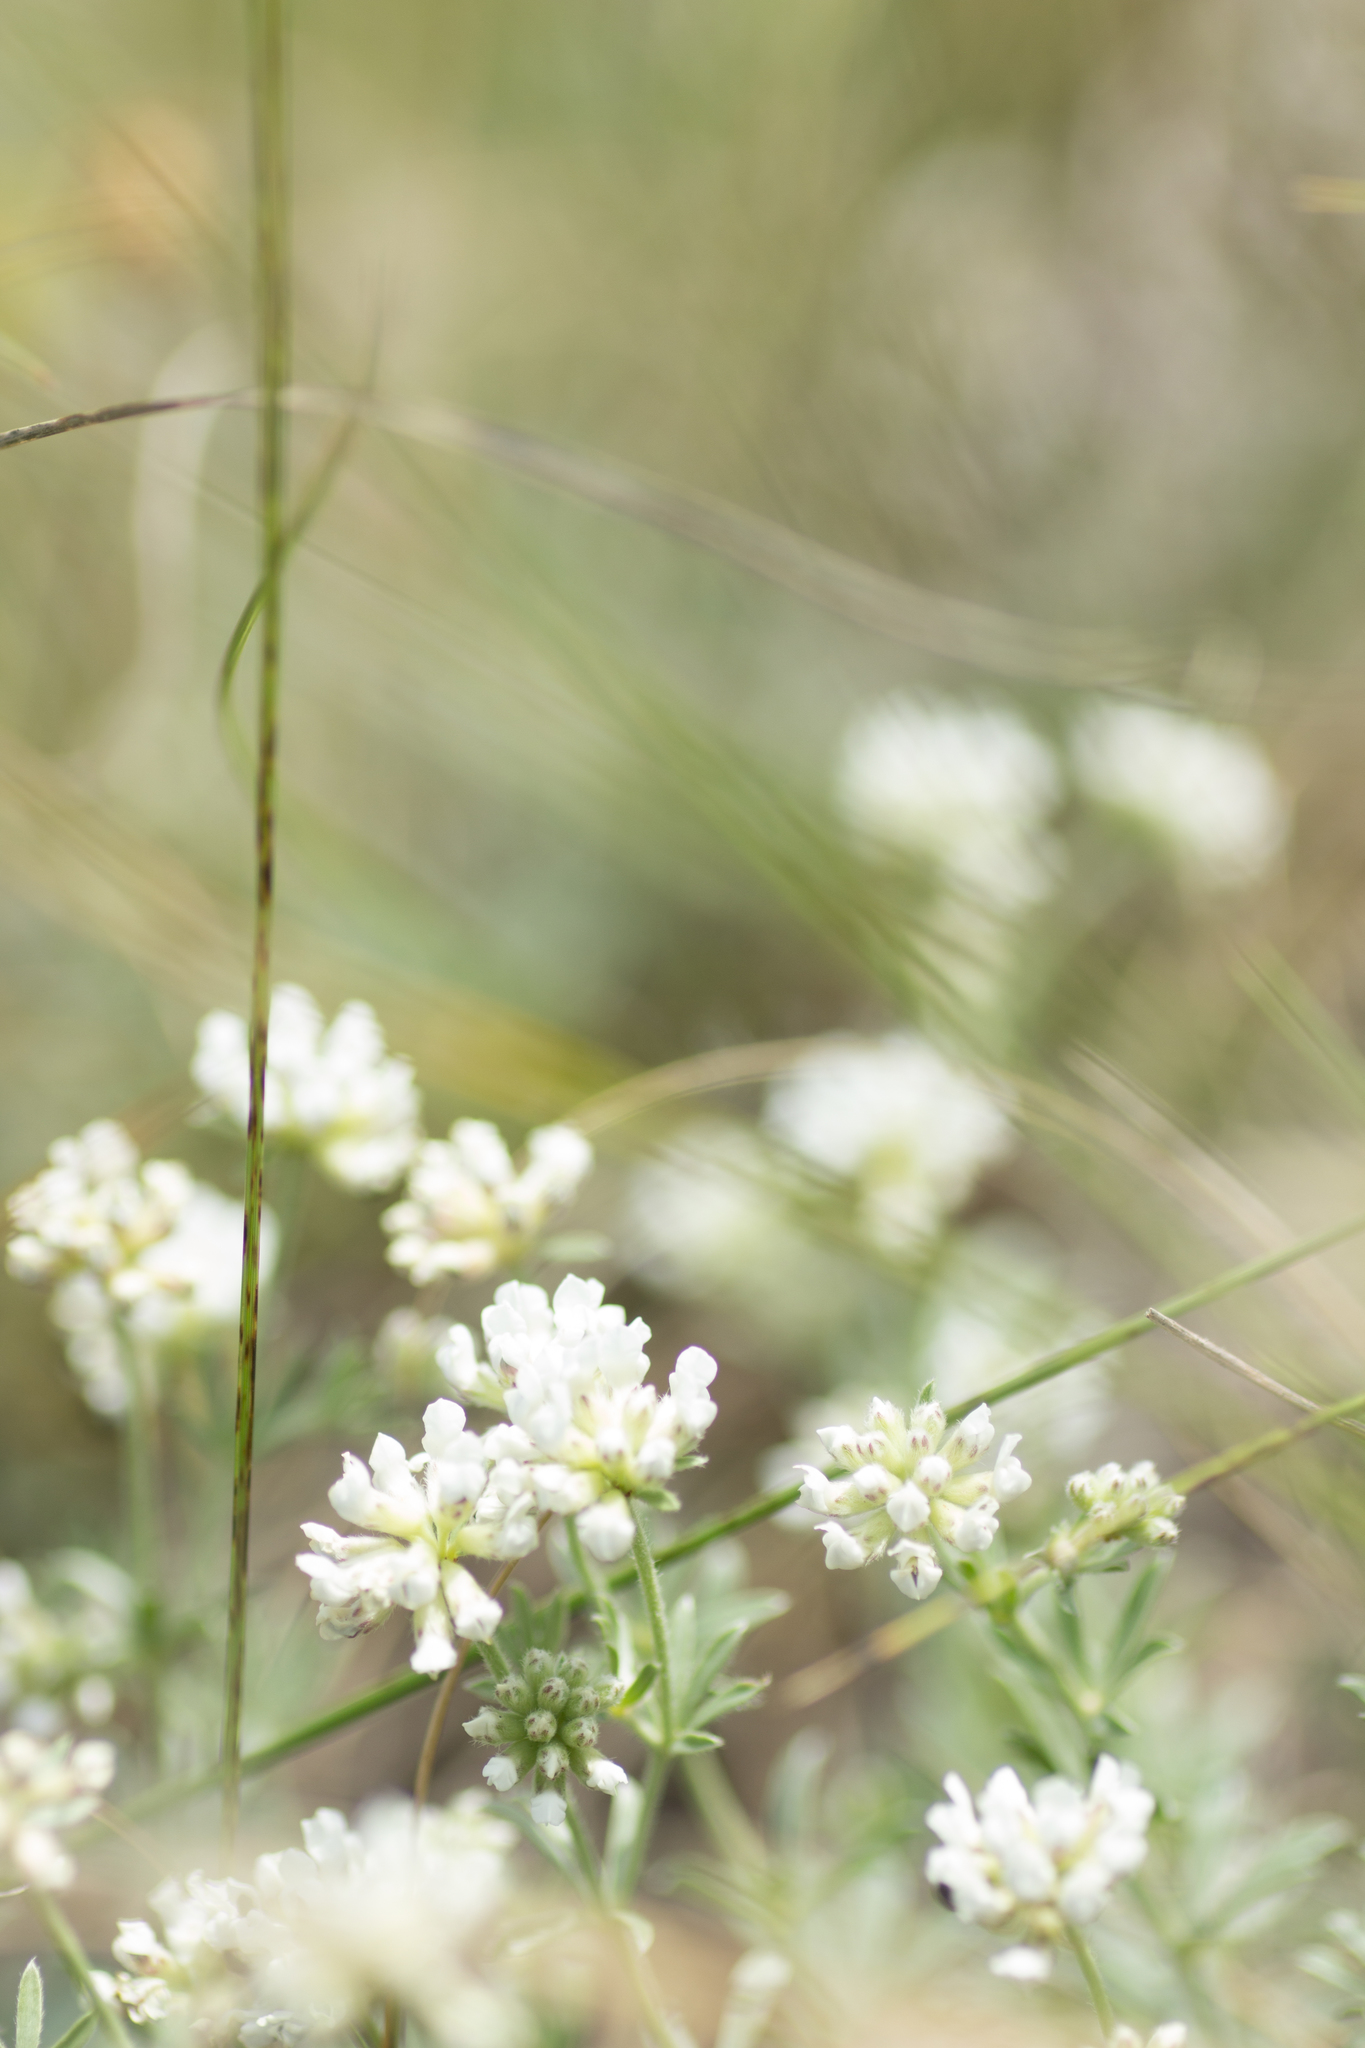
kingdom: Plantae
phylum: Tracheophyta
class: Magnoliopsida
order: Fabales
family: Fabaceae
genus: Lotus
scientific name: Lotus germanicus
